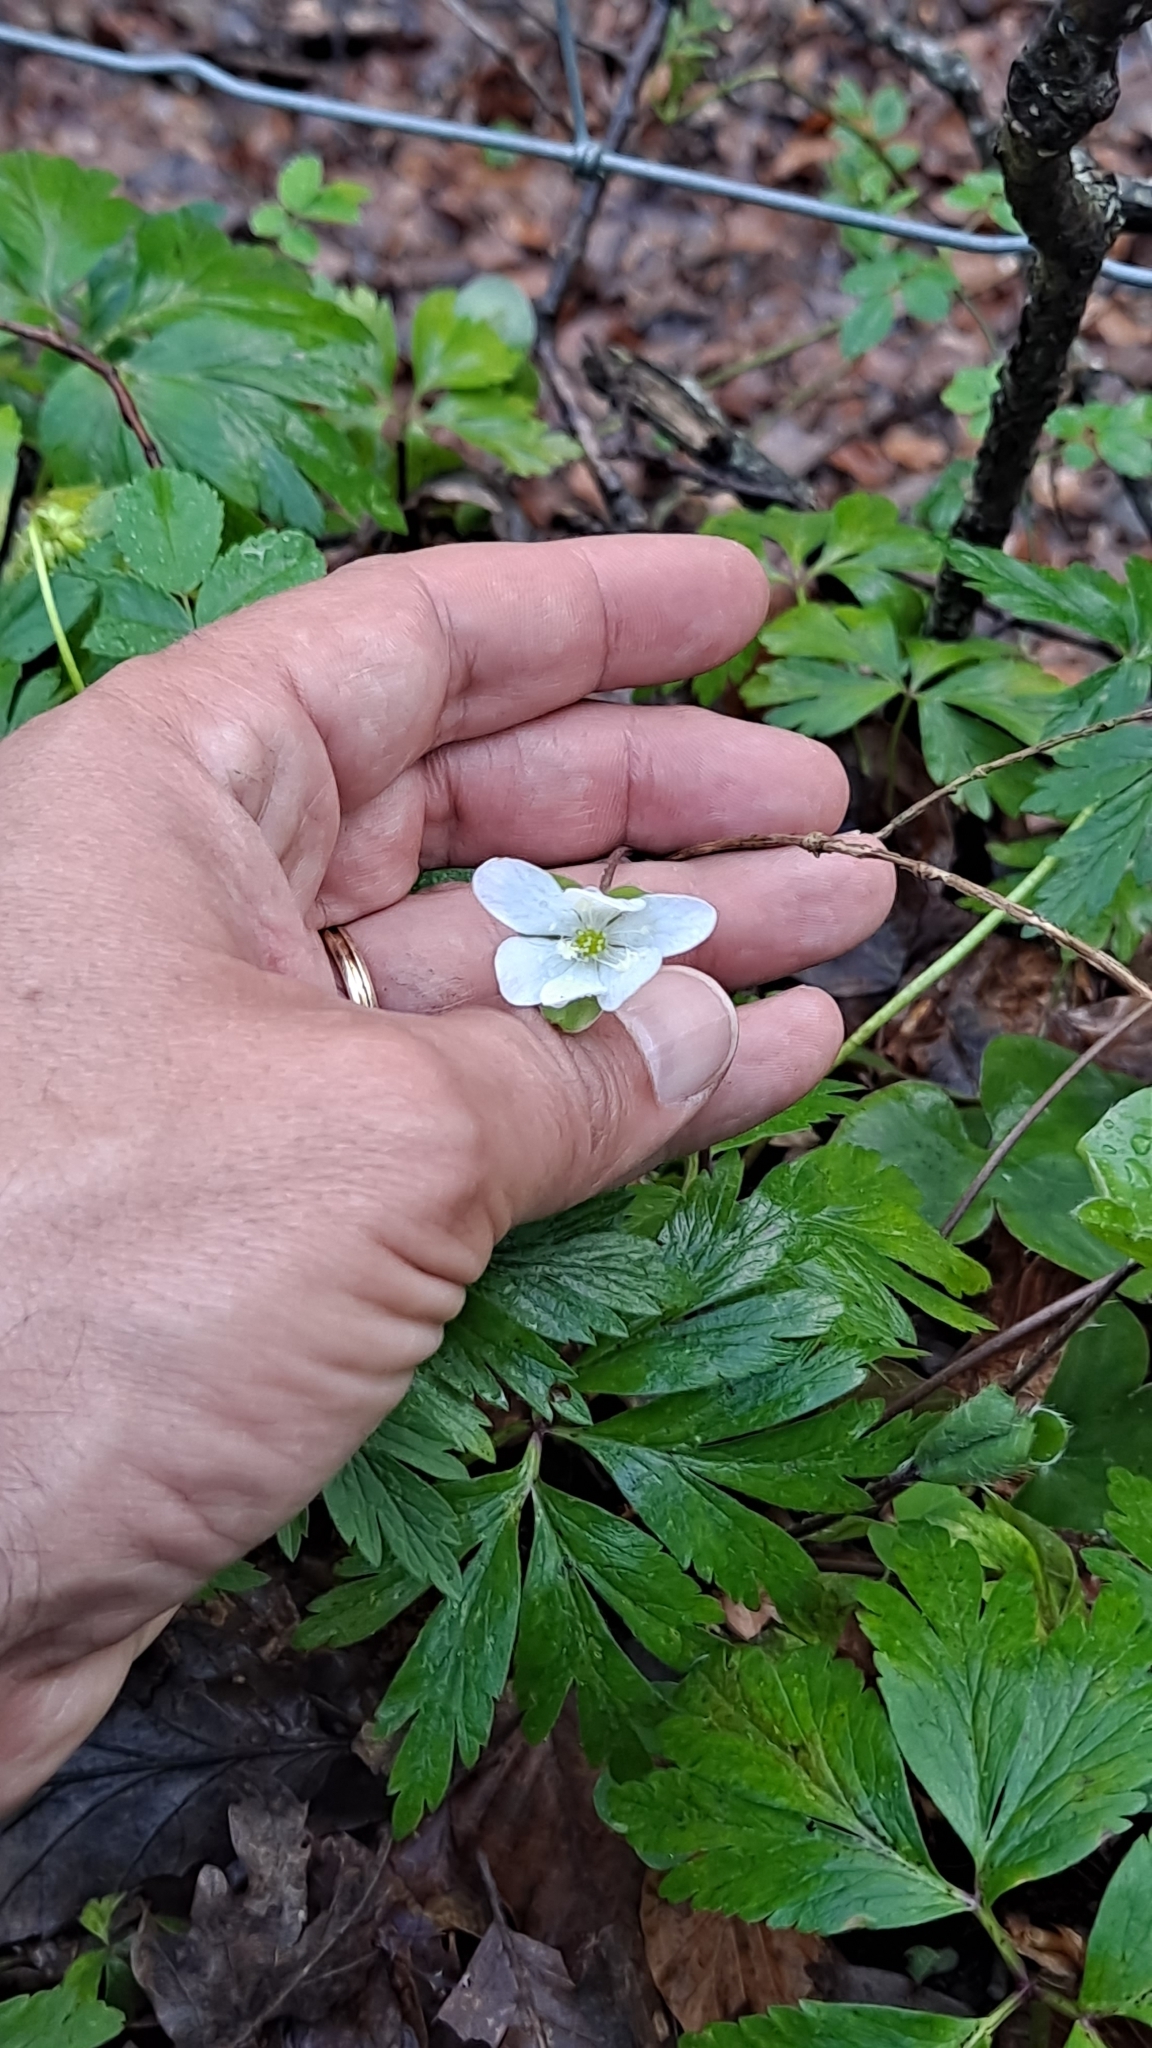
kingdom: Plantae
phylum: Tracheophyta
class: Magnoliopsida
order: Ranunculales
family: Ranunculaceae
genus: Anemone
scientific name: Anemone nemorosa
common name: Wood anemone
